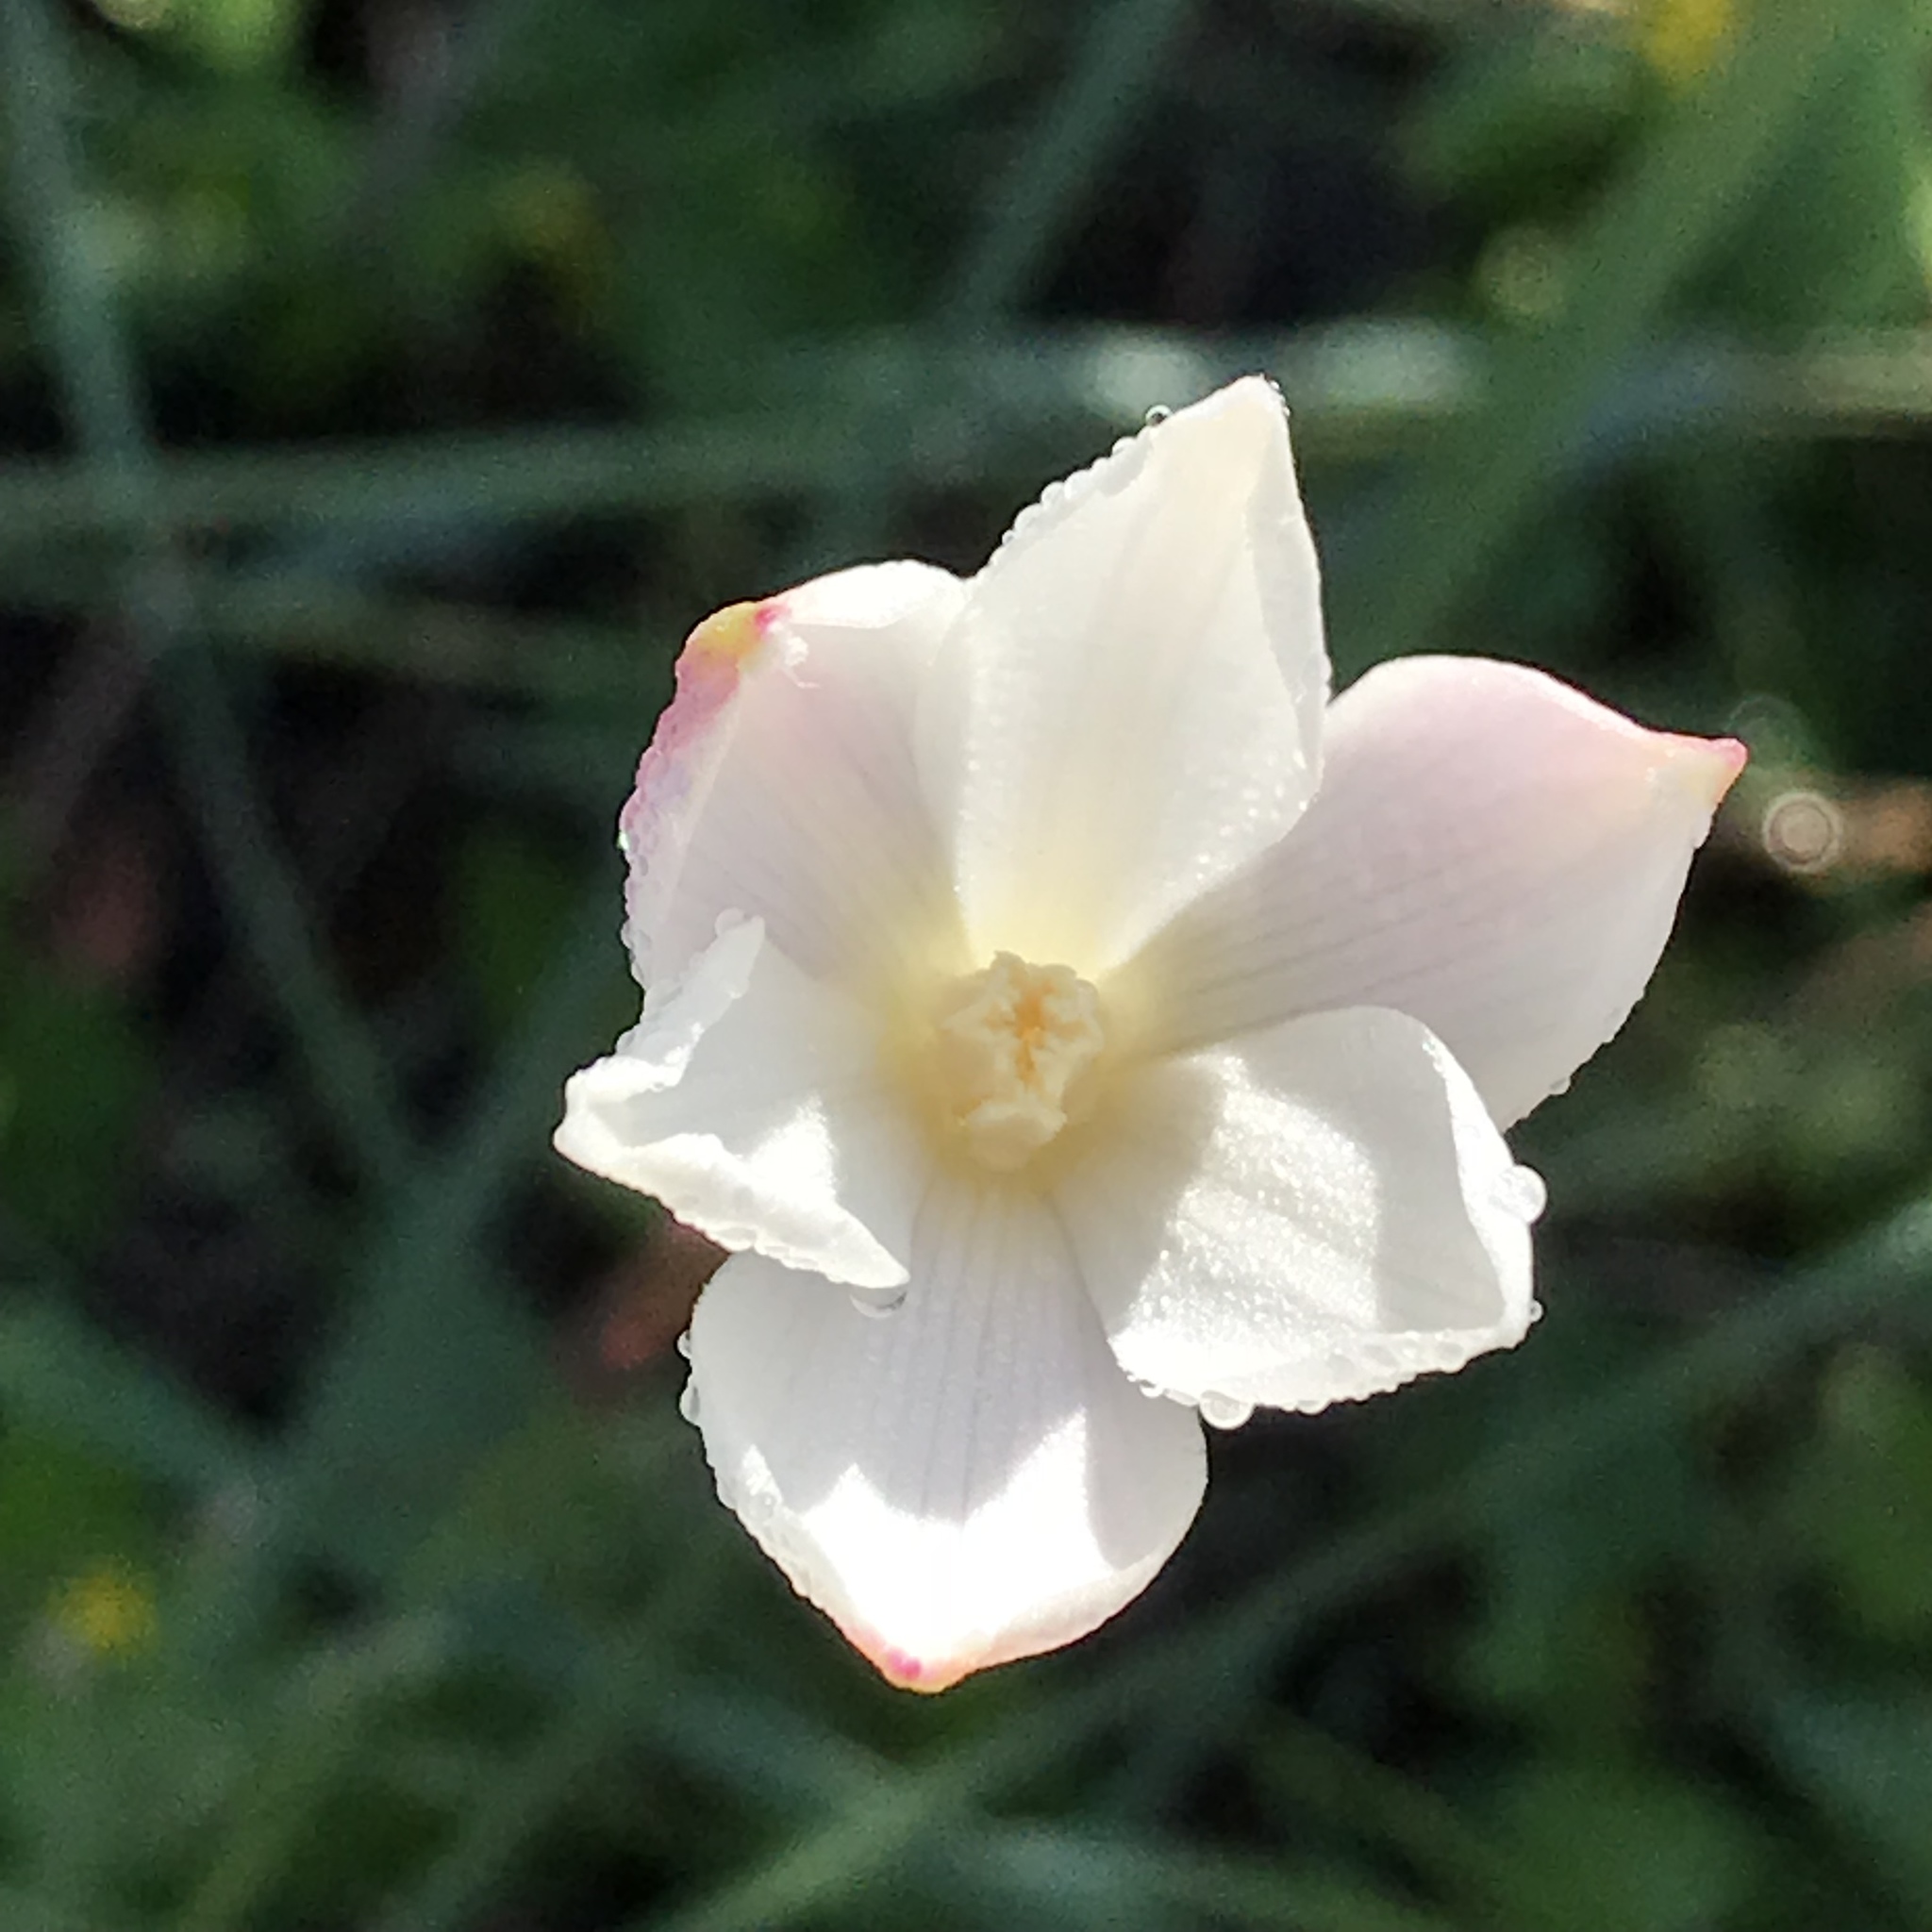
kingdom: Plantae
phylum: Tracheophyta
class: Liliopsida
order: Asparagales
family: Amaryllidaceae
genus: Zephyranthes
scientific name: Zephyranthes chlorosolen
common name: Evening rain-lily
